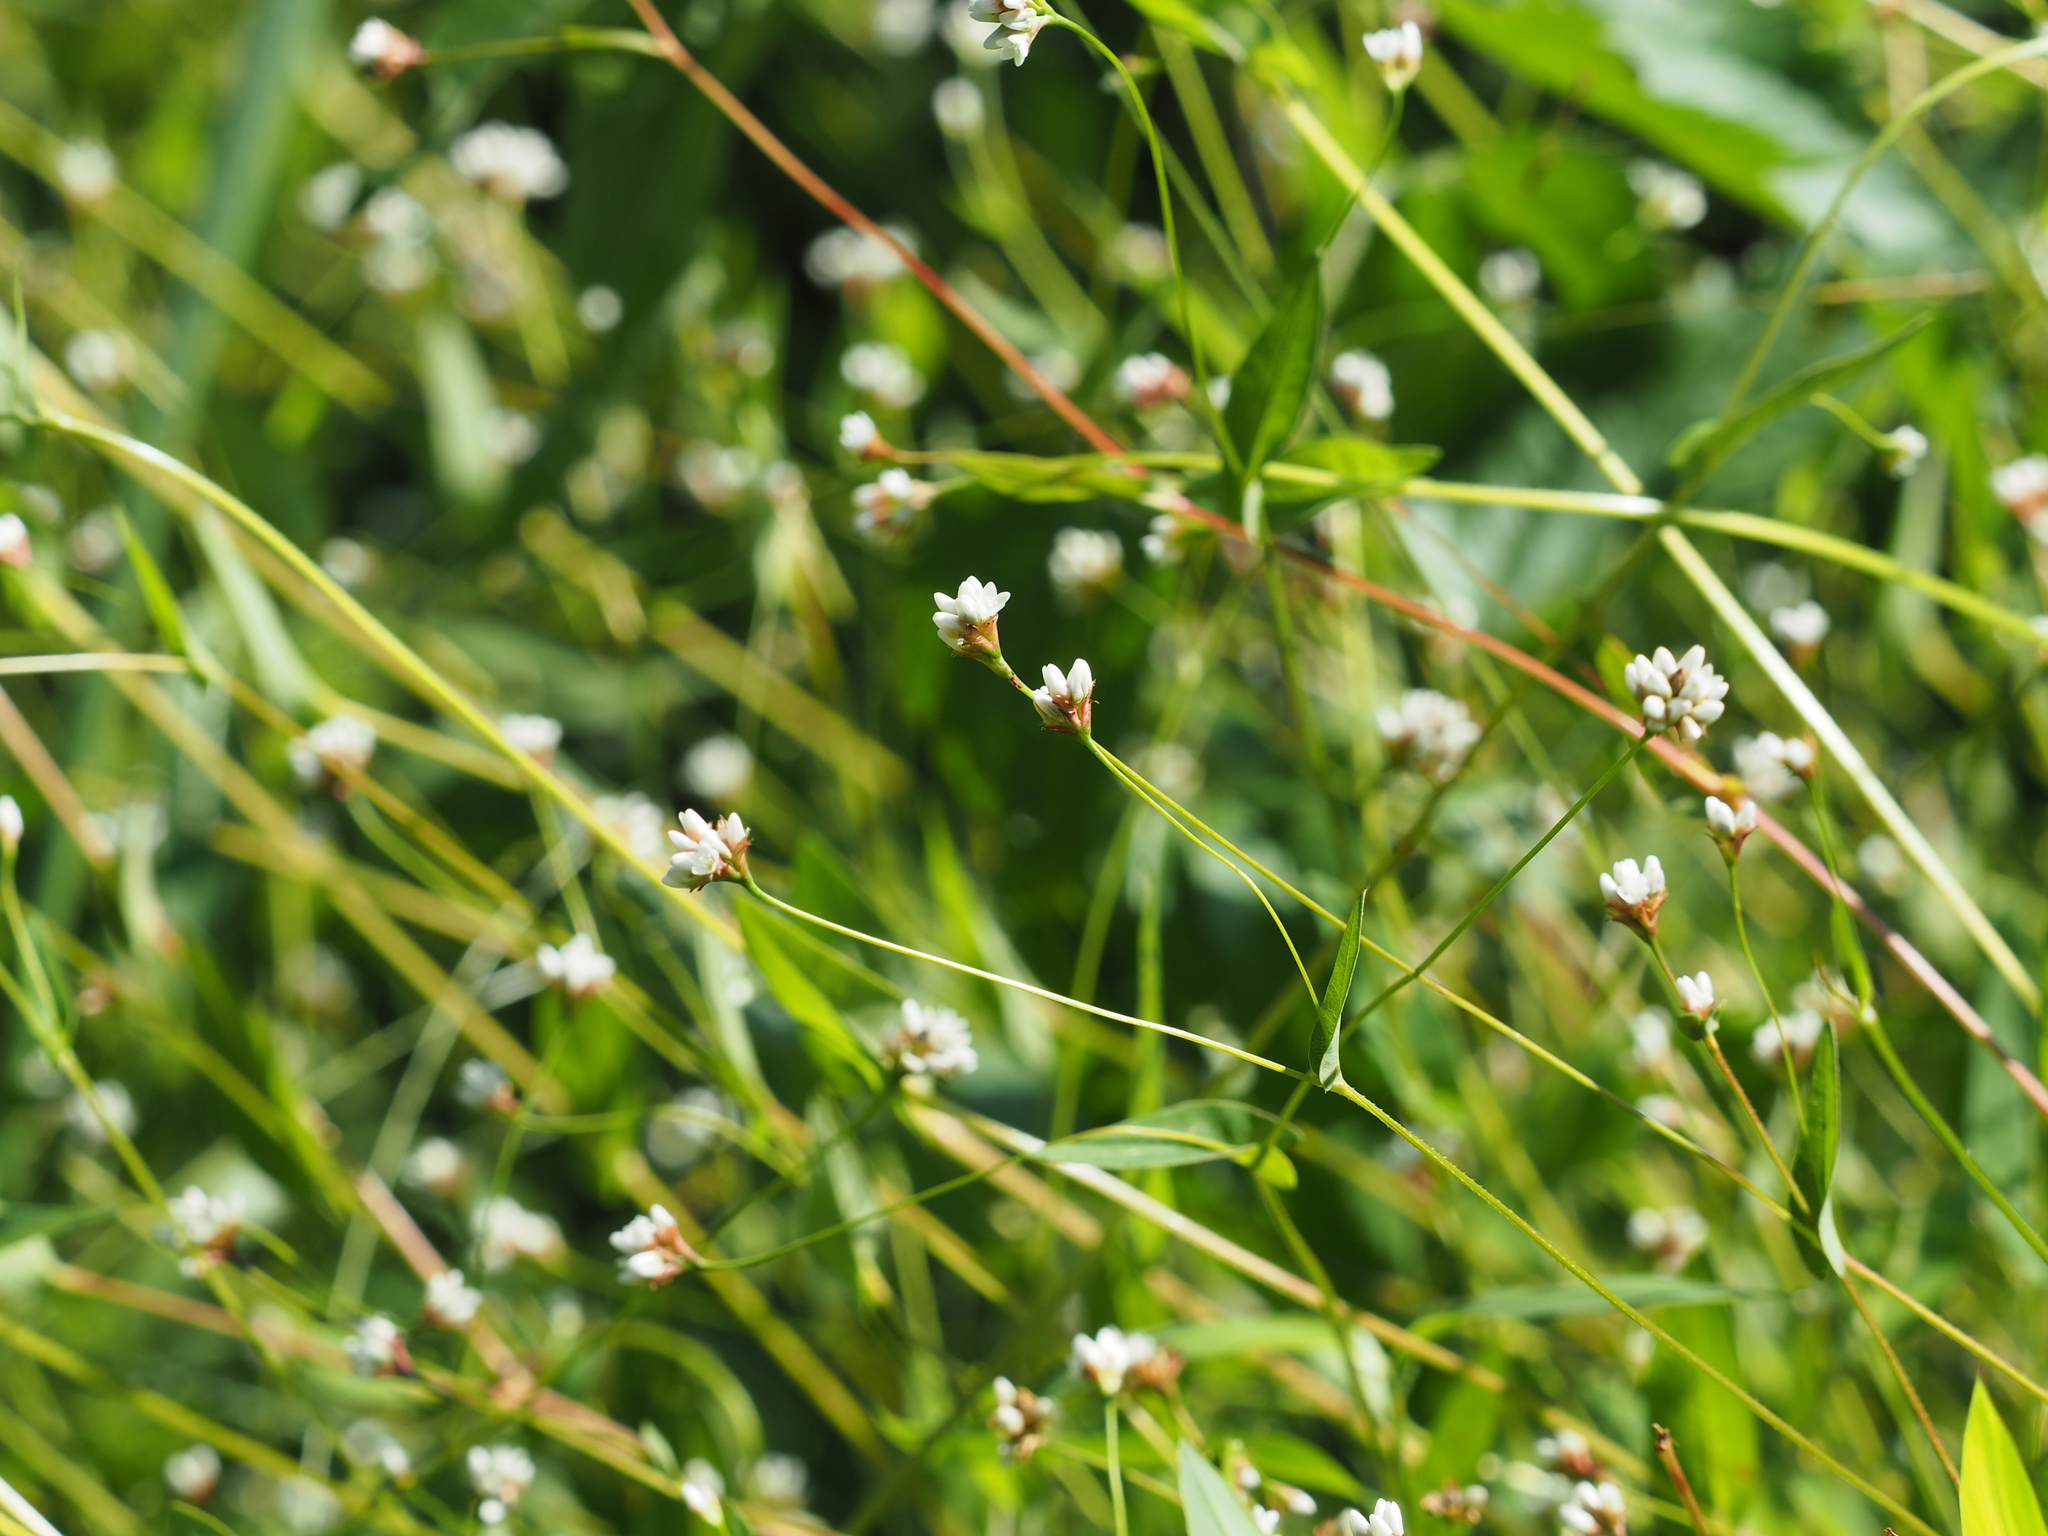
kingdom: Plantae
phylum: Tracheophyta
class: Magnoliopsida
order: Caryophyllales
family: Polygonaceae
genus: Persicaria
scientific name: Persicaria sagittata
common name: American tearthumb
